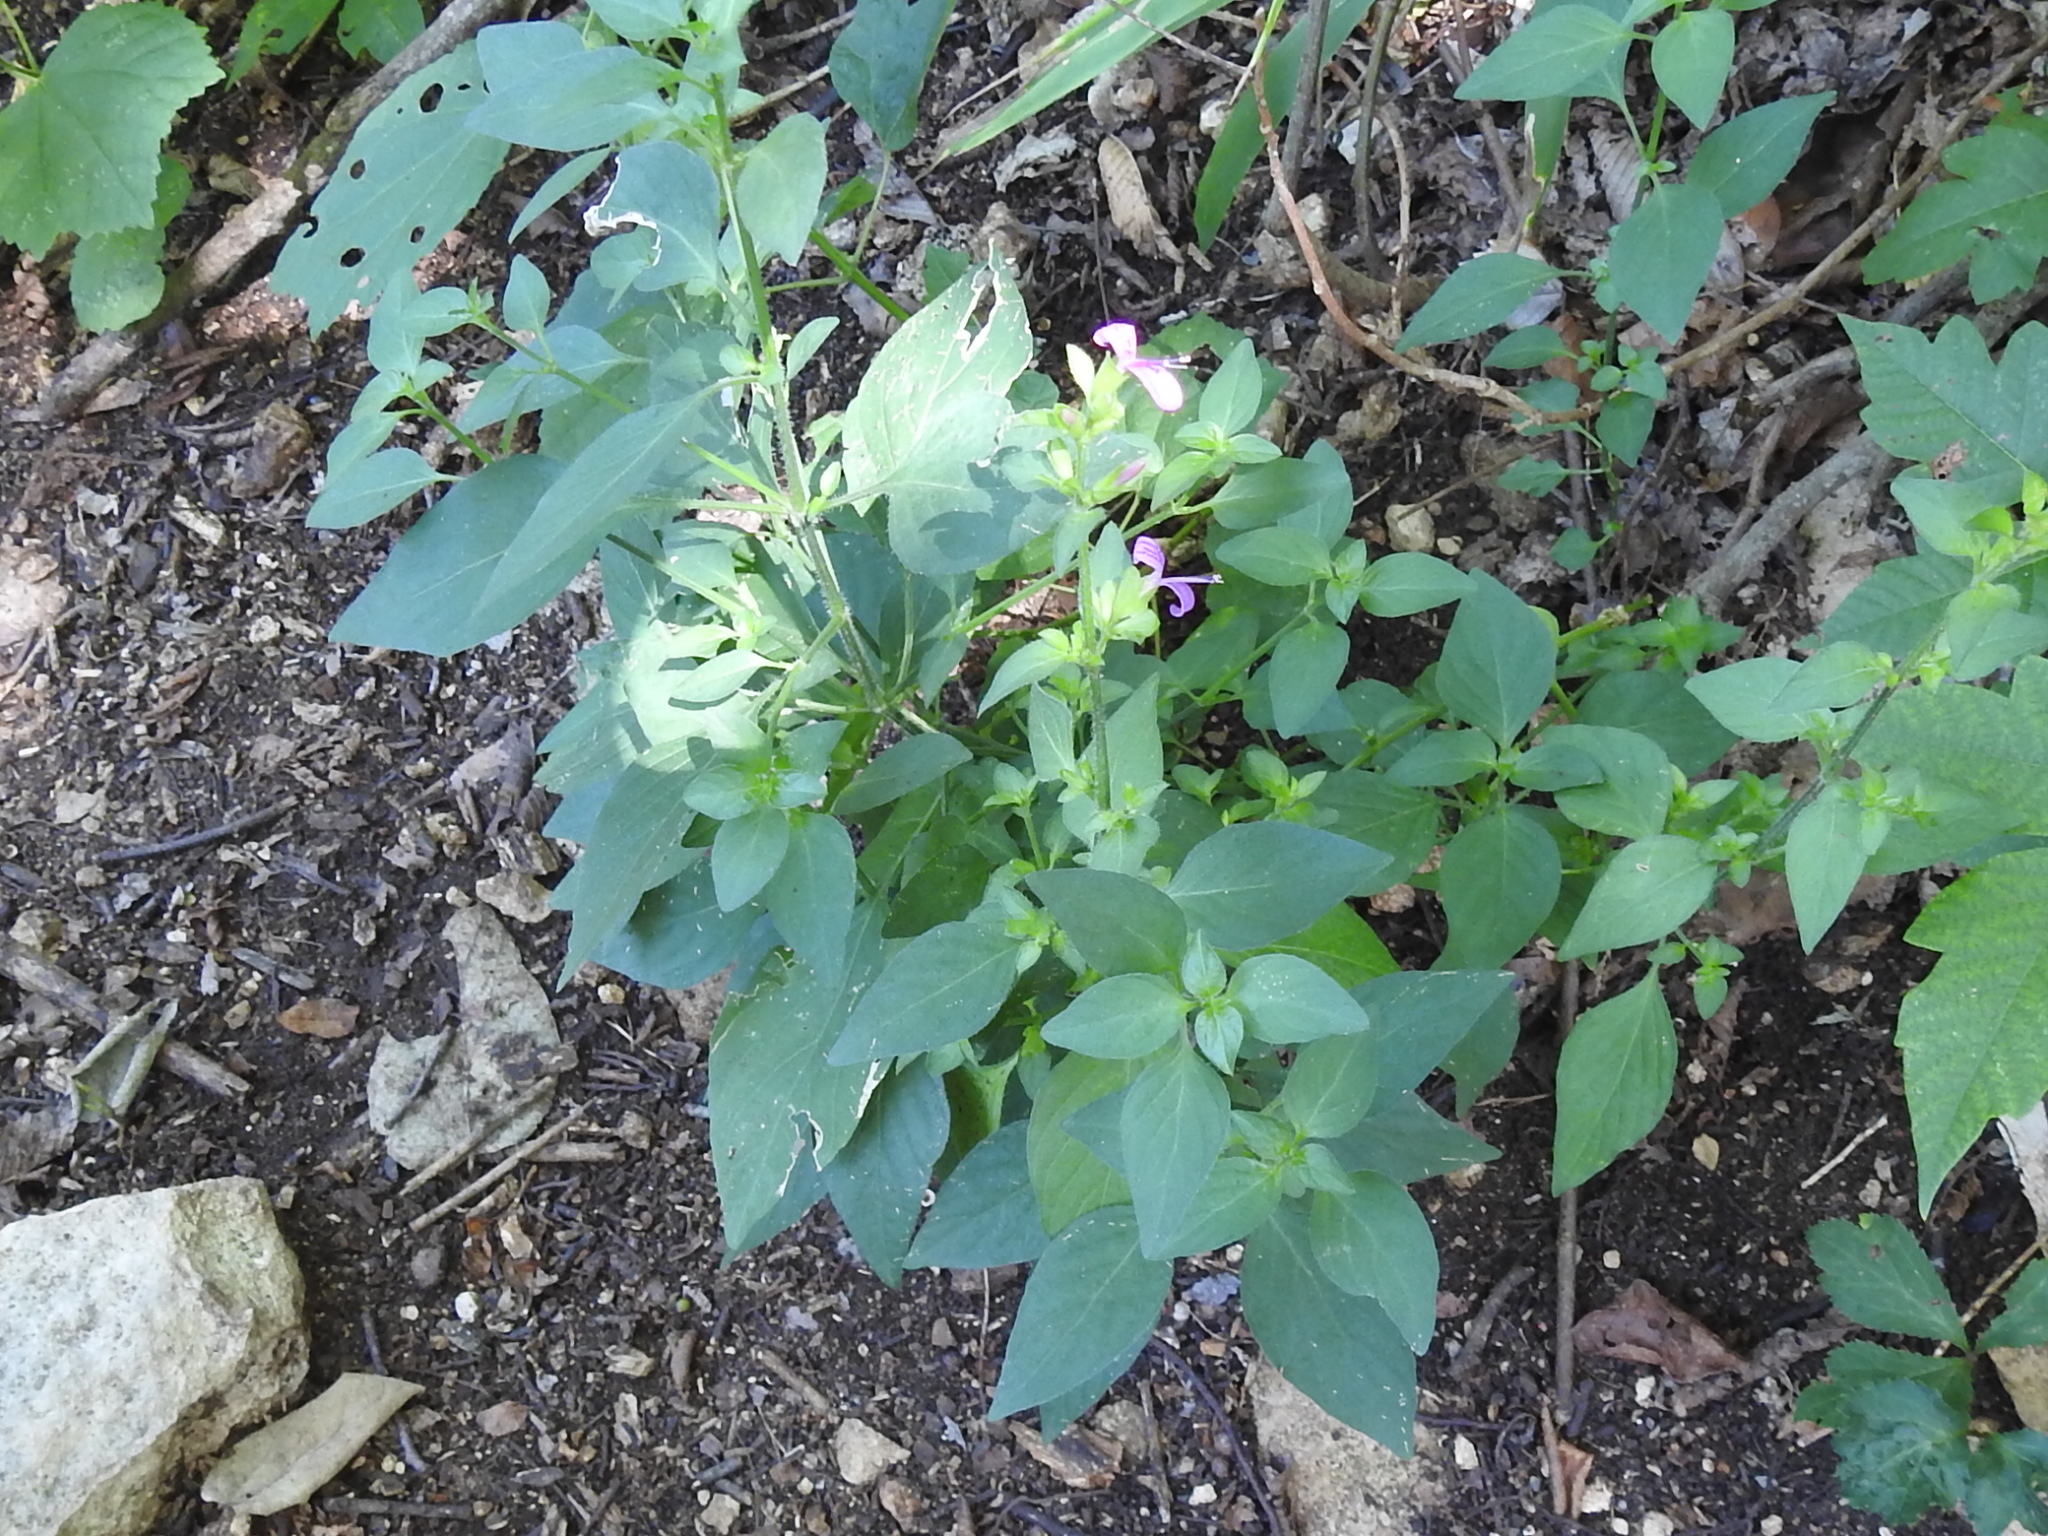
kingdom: Plantae
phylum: Tracheophyta
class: Magnoliopsida
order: Lamiales
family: Acanthaceae
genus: Dicliptera
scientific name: Dicliptera brachiata
